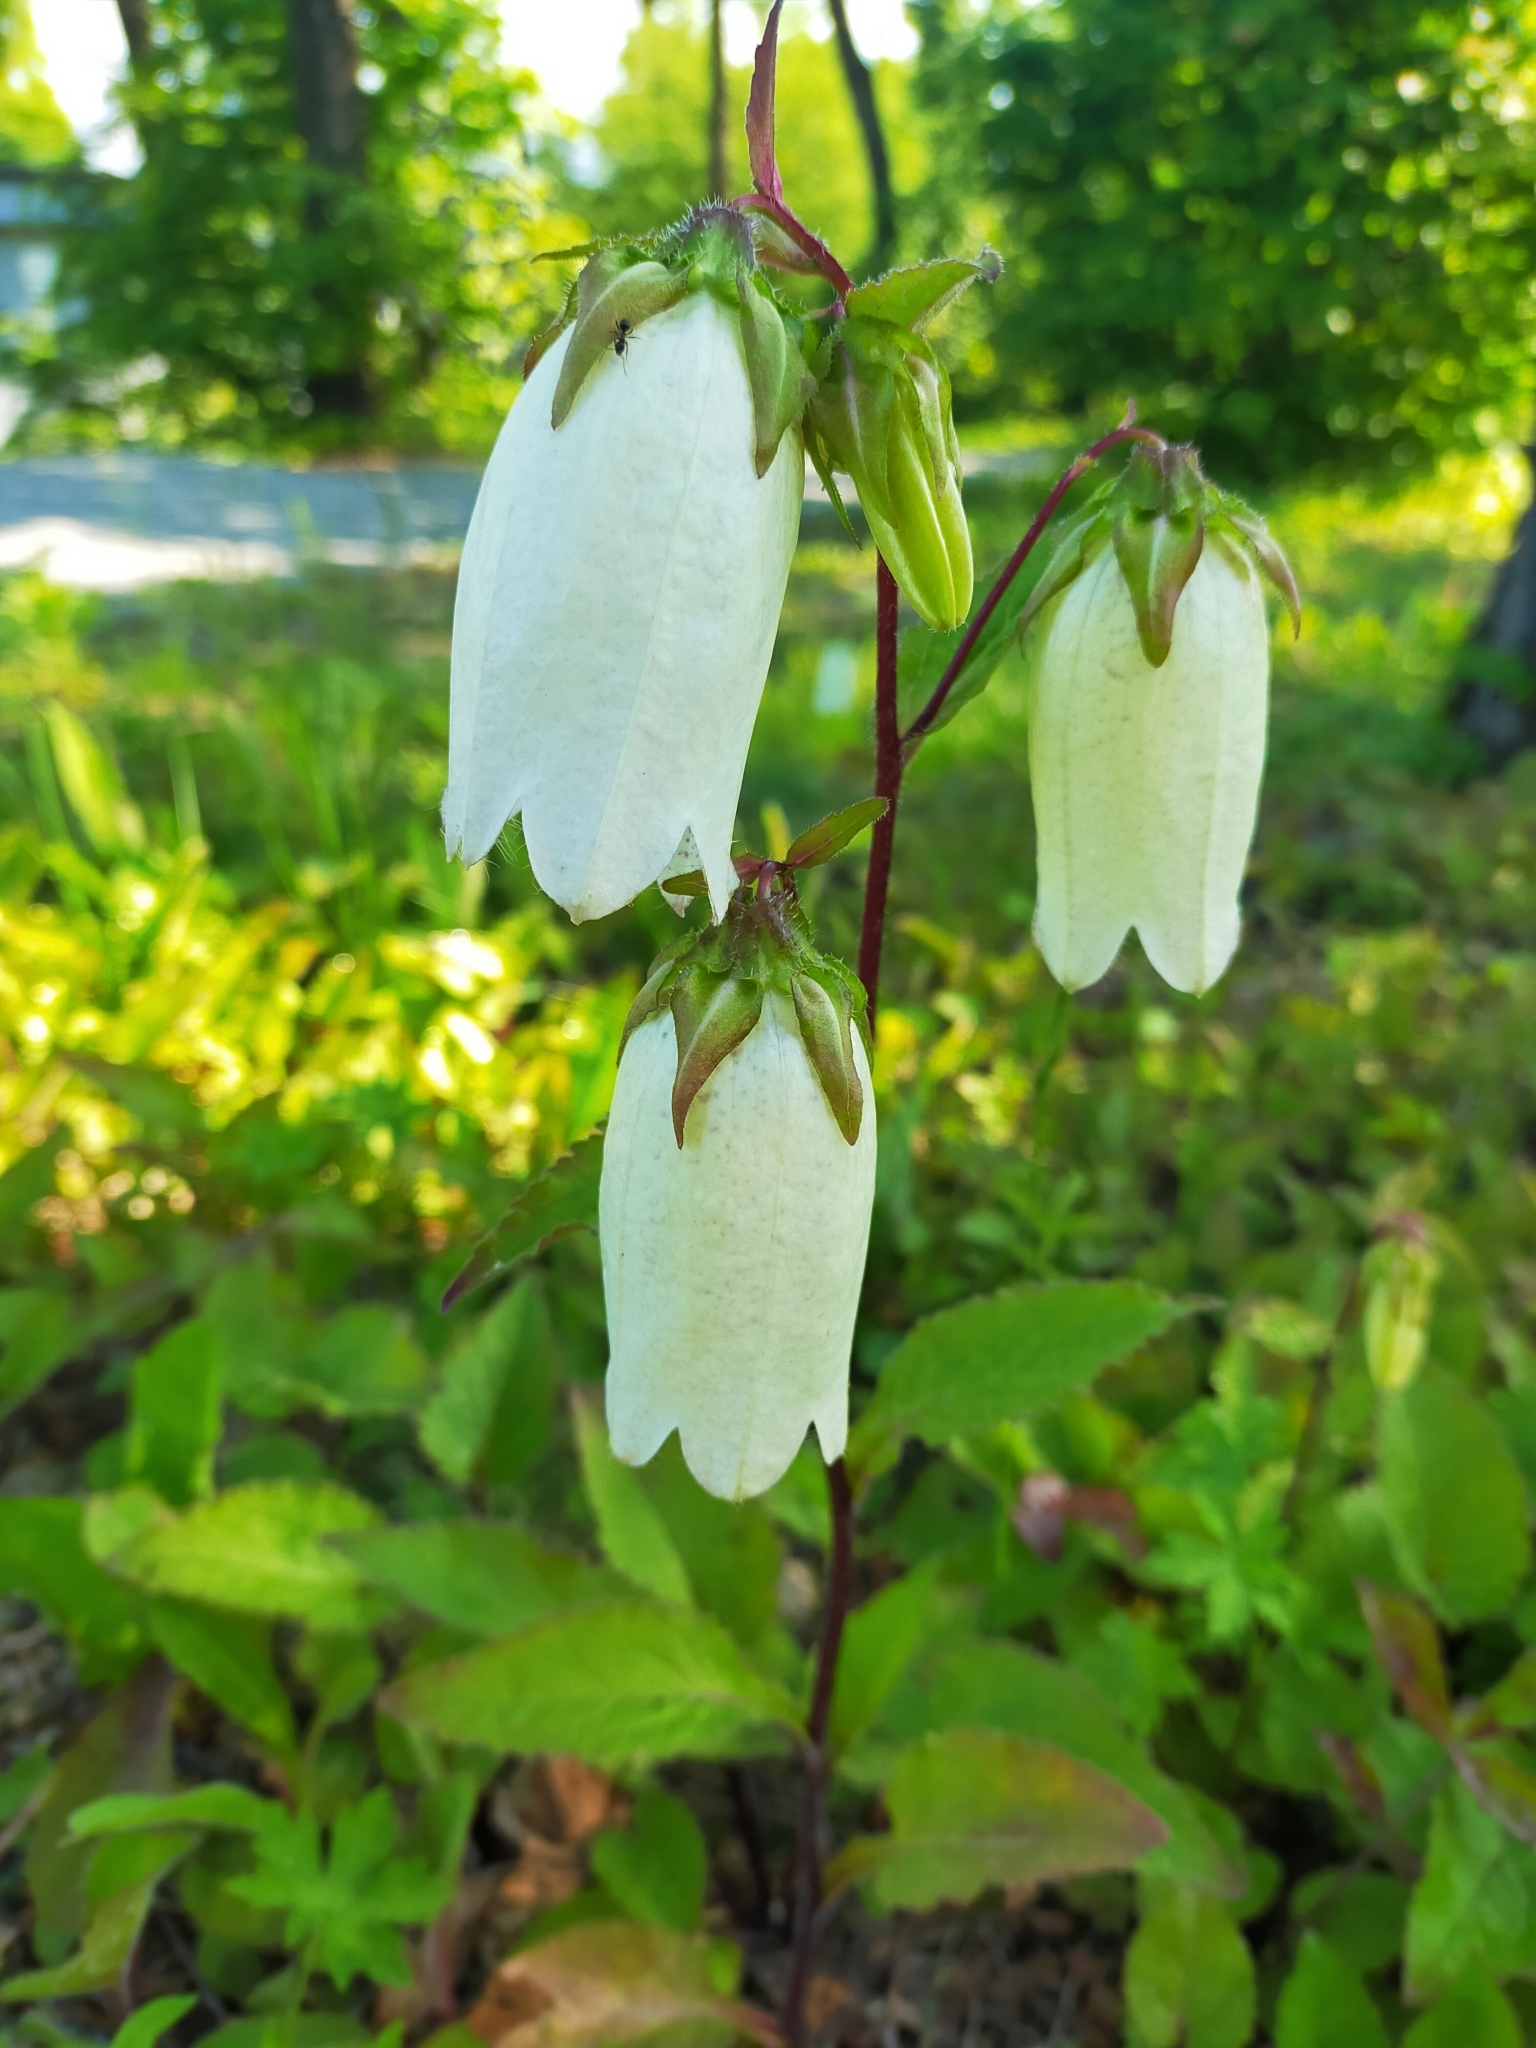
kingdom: Plantae
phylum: Tracheophyta
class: Magnoliopsida
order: Asterales
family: Campanulaceae
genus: Campanula
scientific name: Campanula punctata
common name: Spotted bellflower
